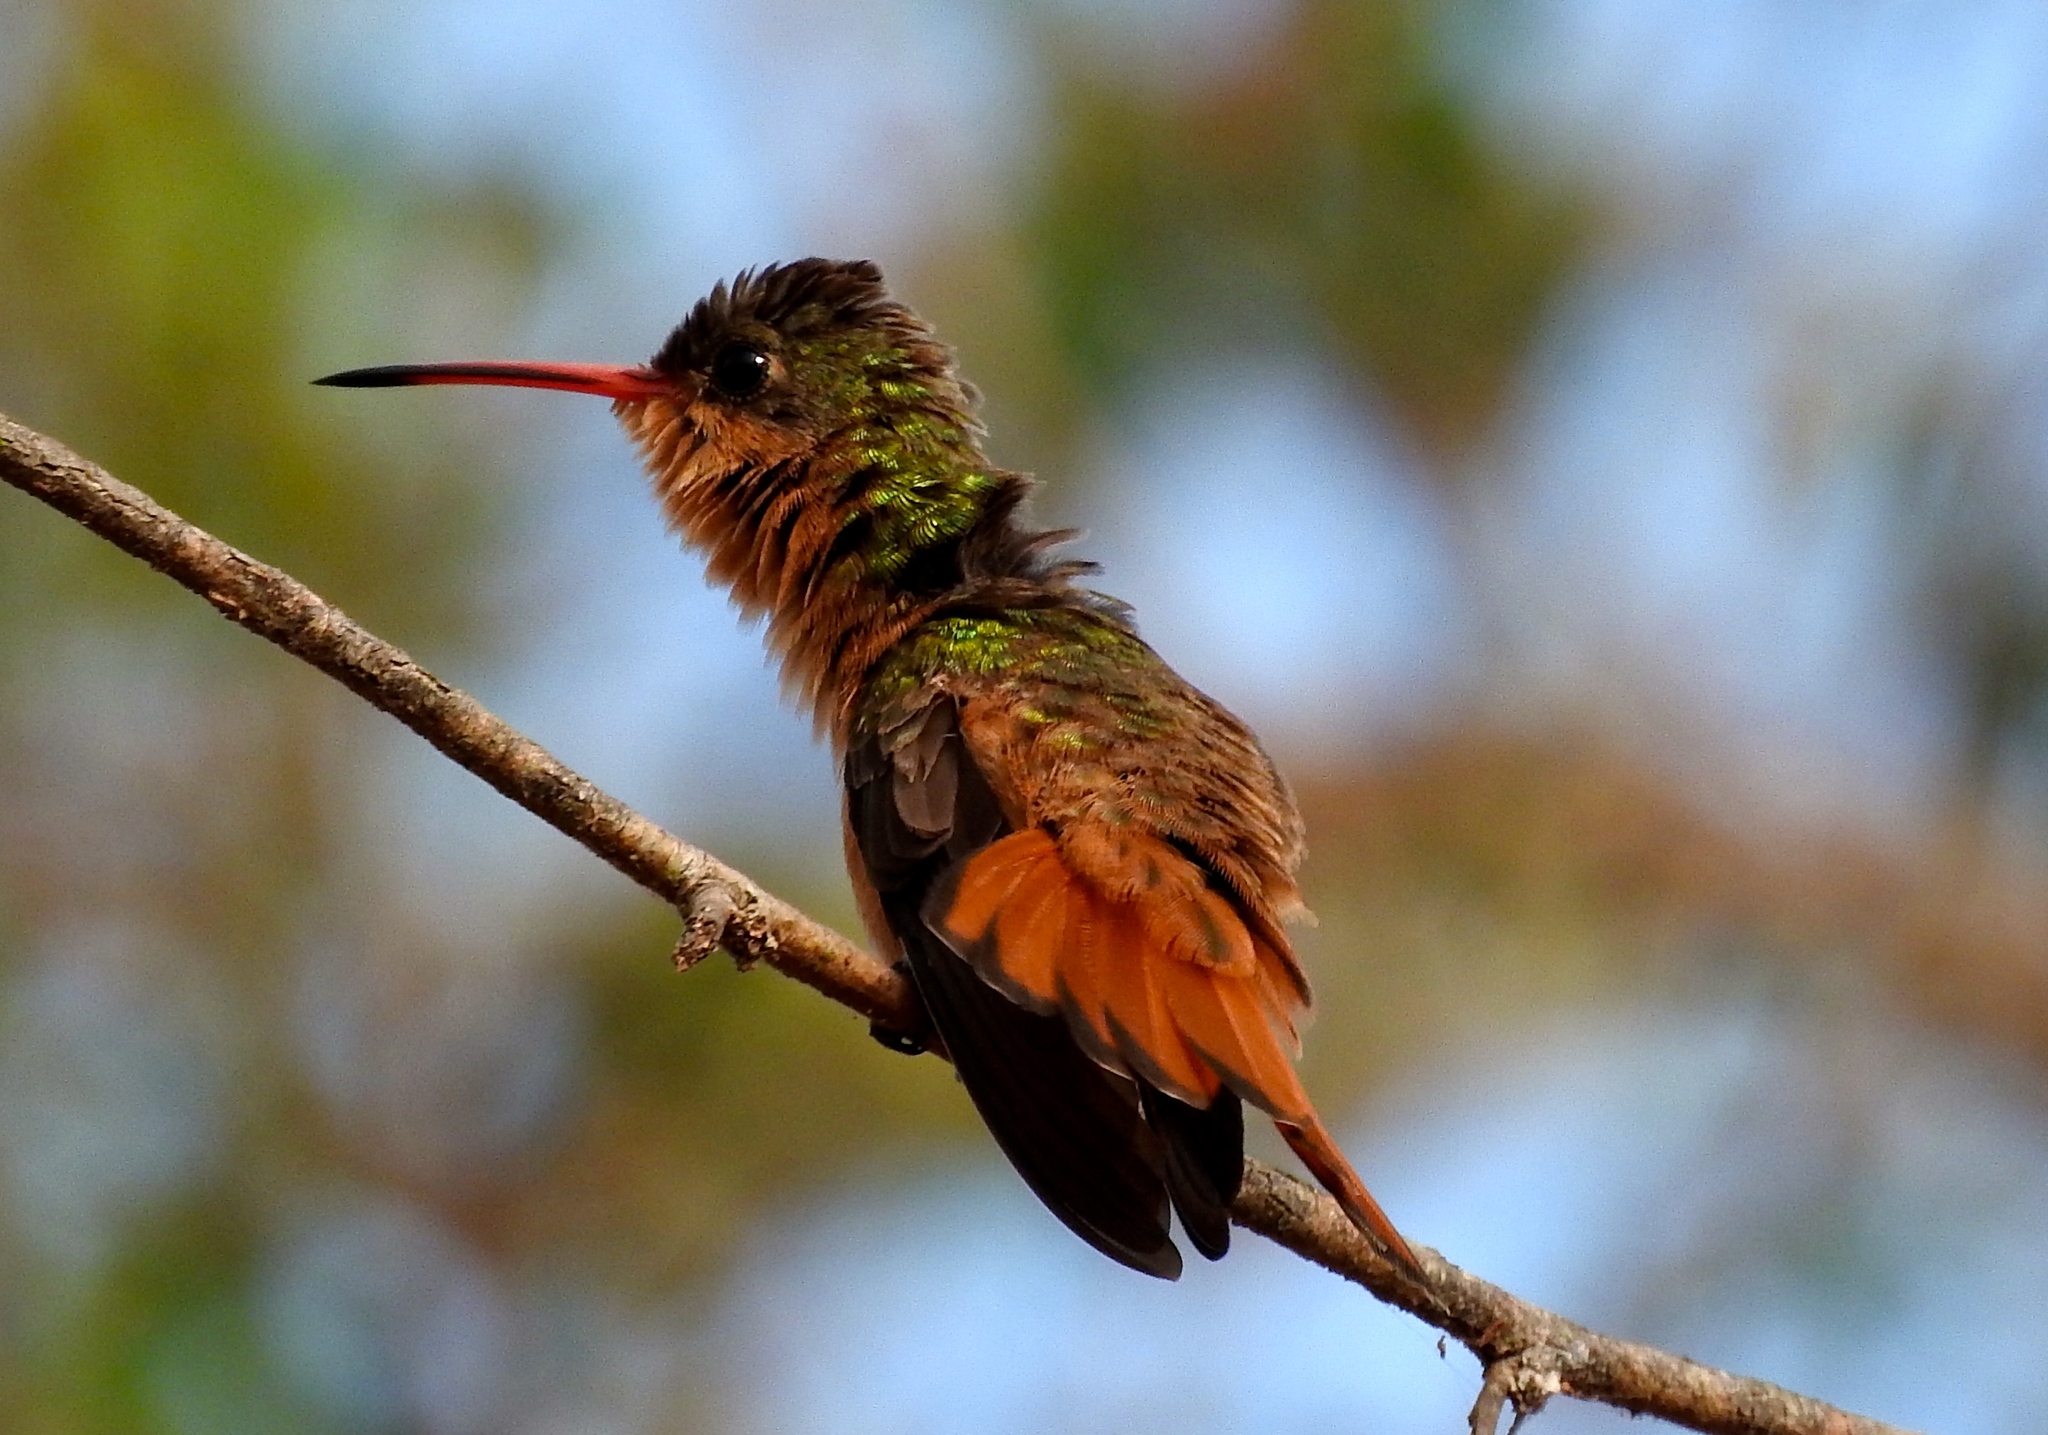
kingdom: Animalia
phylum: Chordata
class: Aves
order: Apodiformes
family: Trochilidae
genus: Amazilia
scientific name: Amazilia rutila
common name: Cinnamon hummingbird
